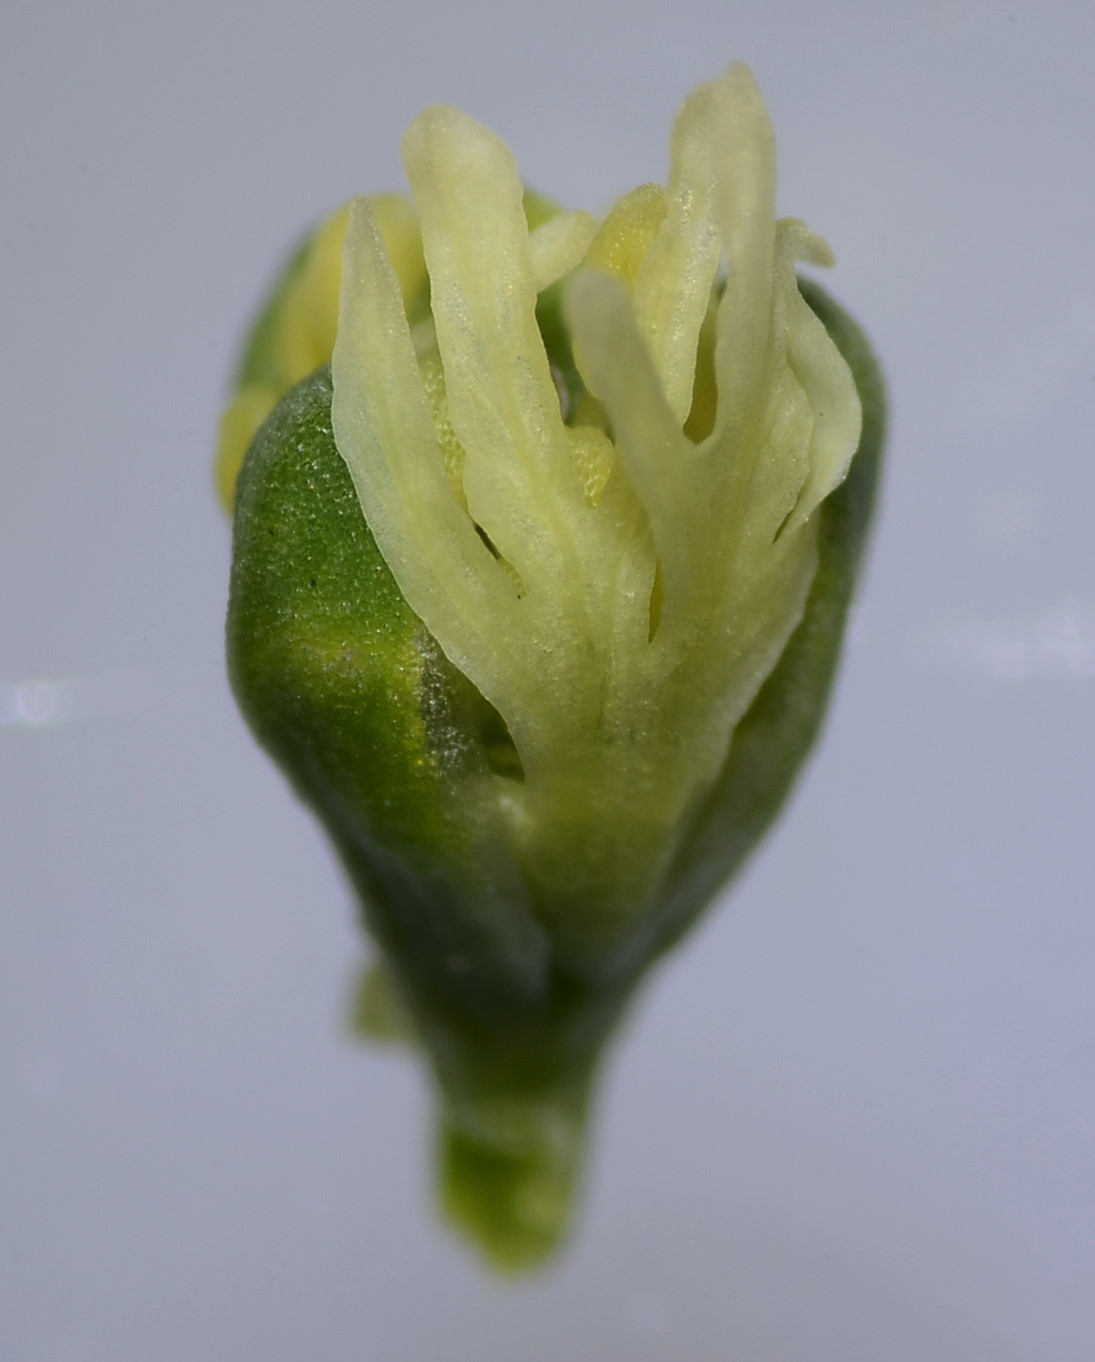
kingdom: Plantae
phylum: Tracheophyta
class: Magnoliopsida
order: Brassicales
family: Resedaceae
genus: Reseda
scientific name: Reseda luteola
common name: Weld
